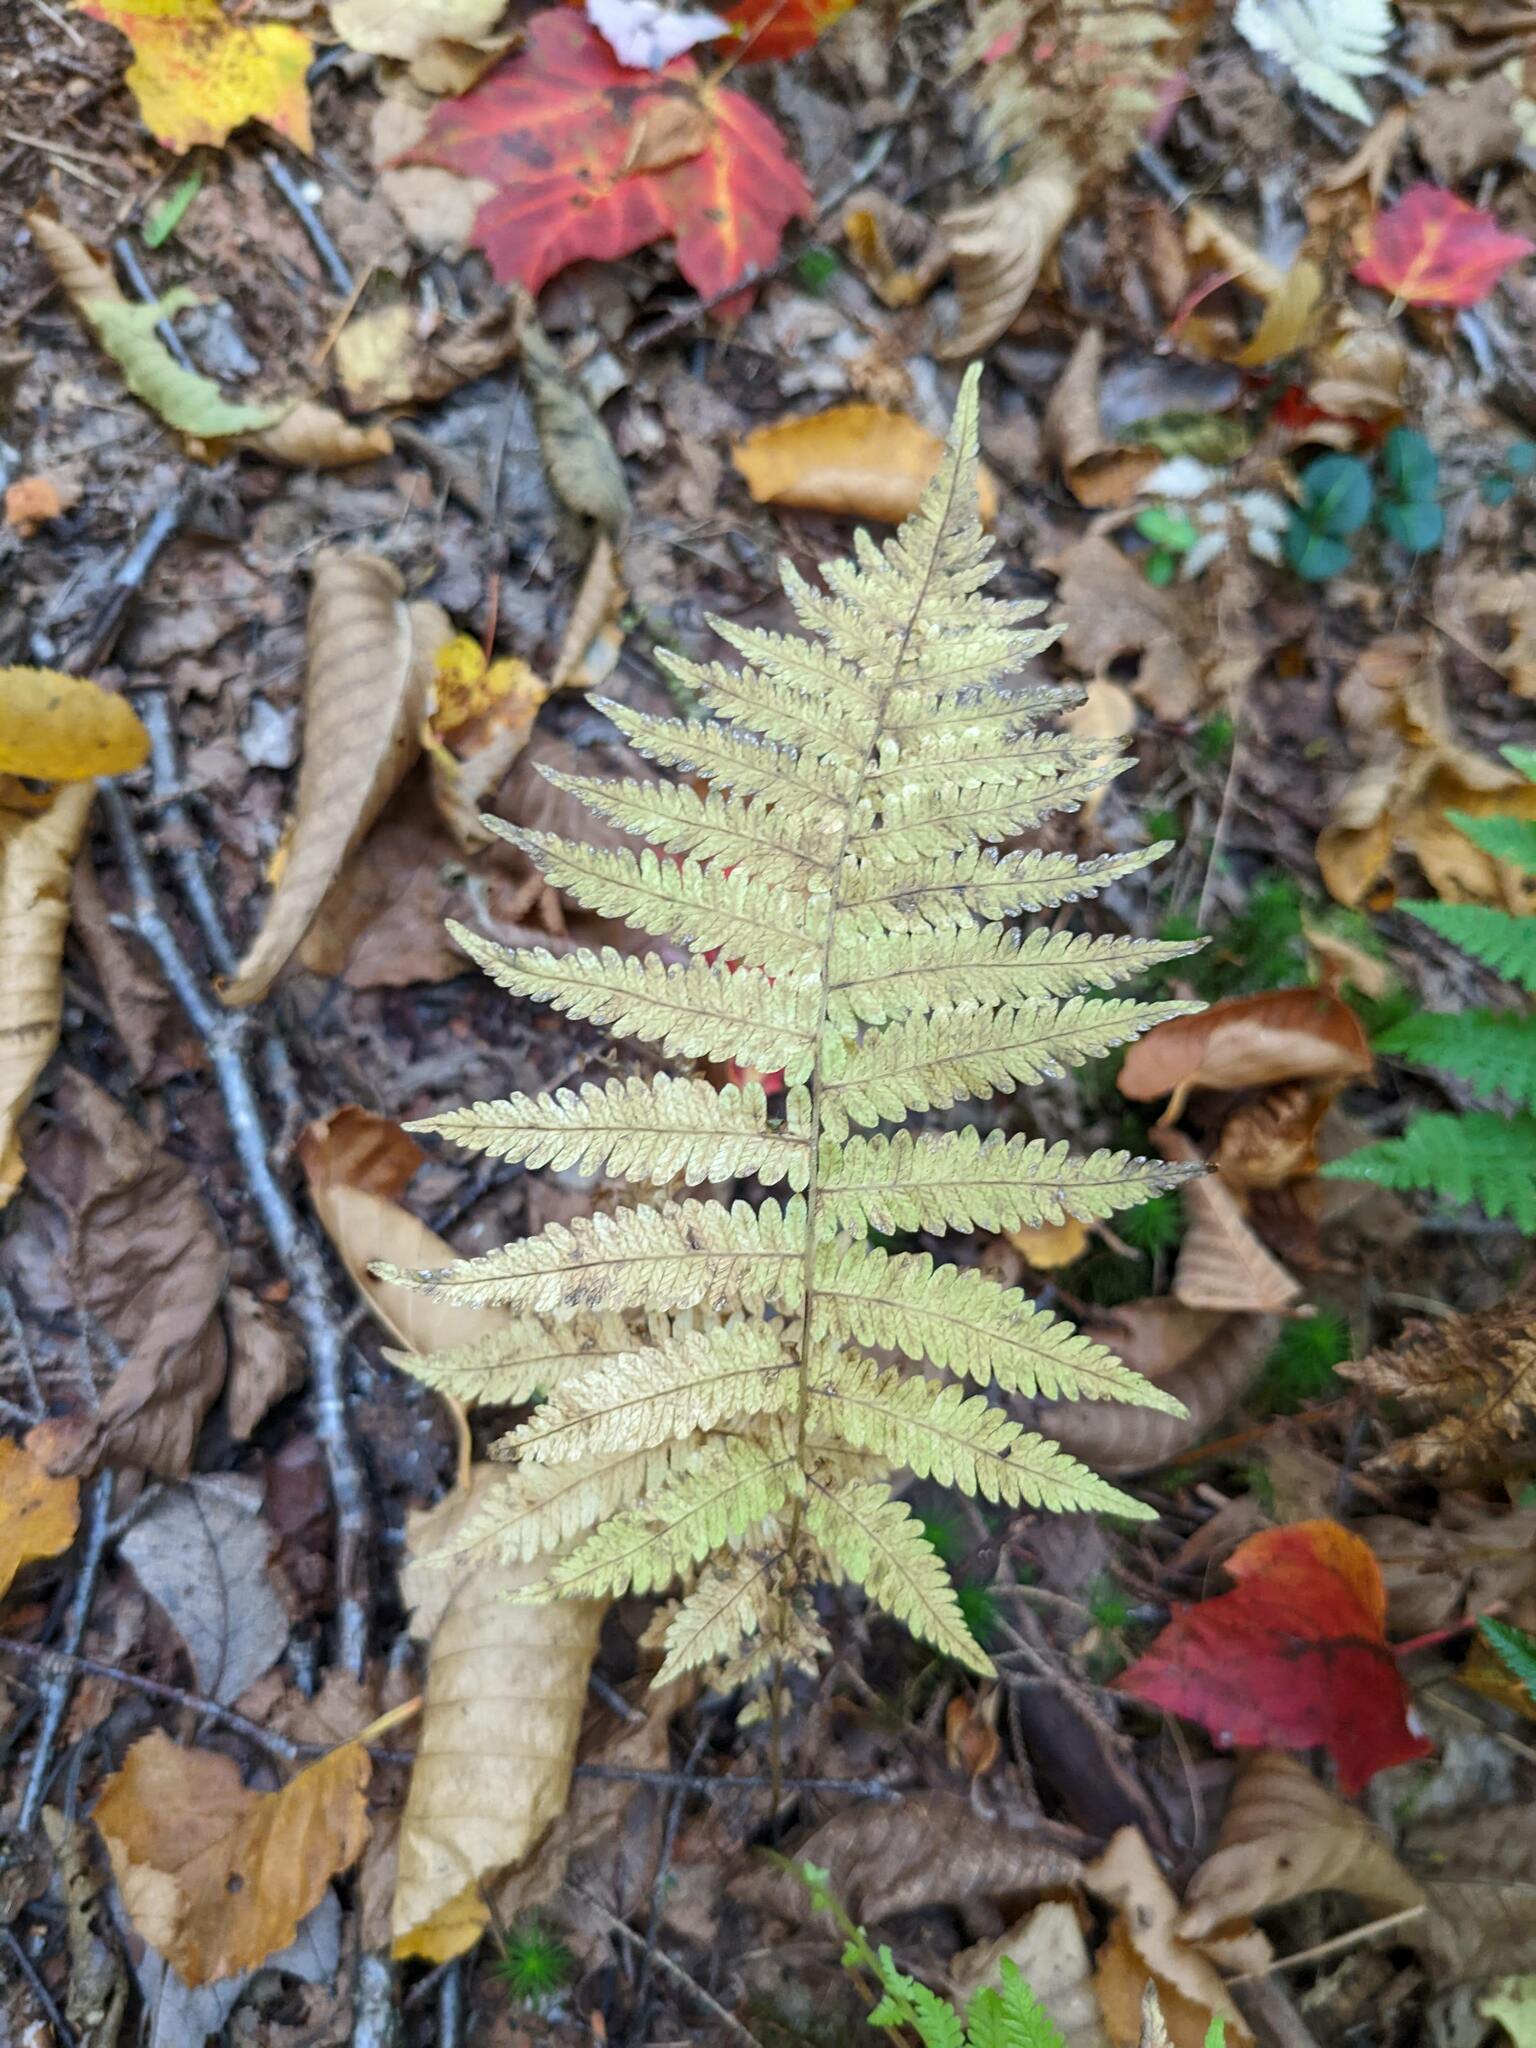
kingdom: Plantae
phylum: Tracheophyta
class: Polypodiopsida
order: Polypodiales
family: Thelypteridaceae
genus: Amauropelta
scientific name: Amauropelta noveboracensis
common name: New york fern
